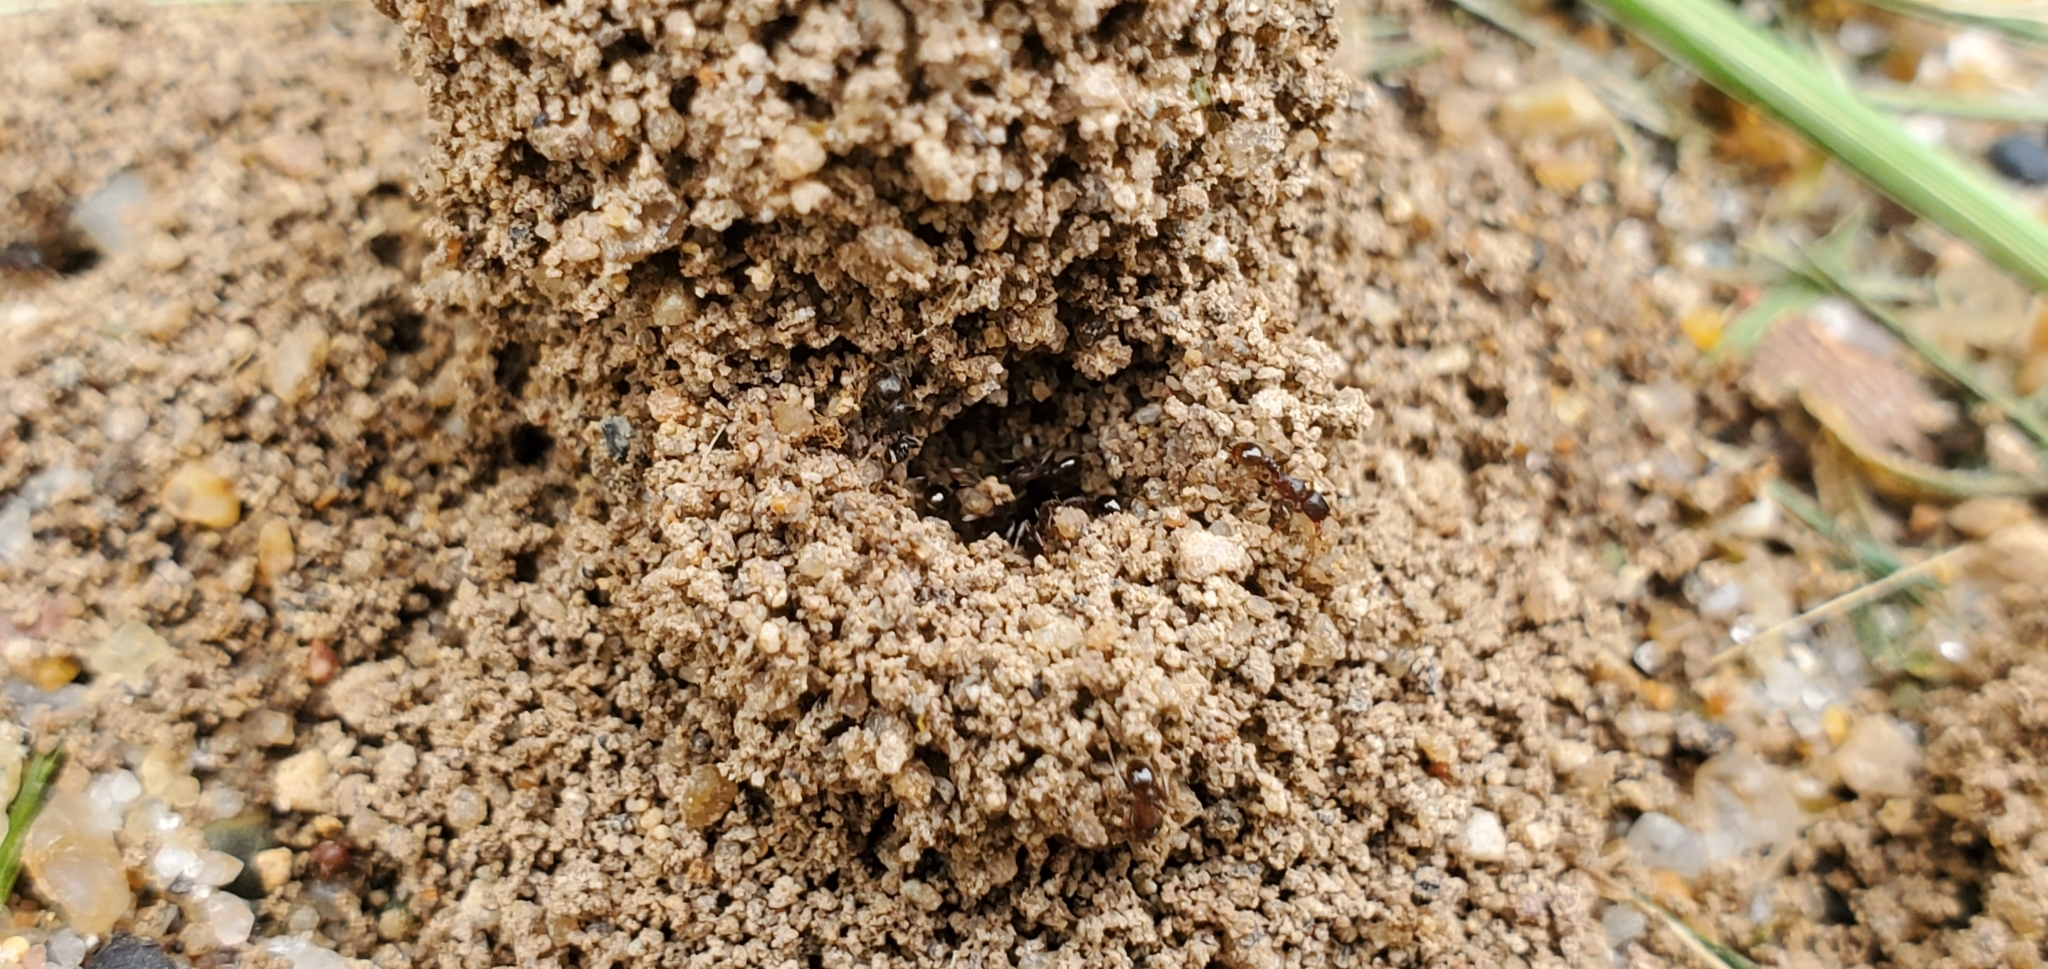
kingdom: Animalia
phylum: Arthropoda
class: Insecta
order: Hymenoptera
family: Formicidae
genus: Tetramorium
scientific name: Tetramorium immigrans
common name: Pavement ant
